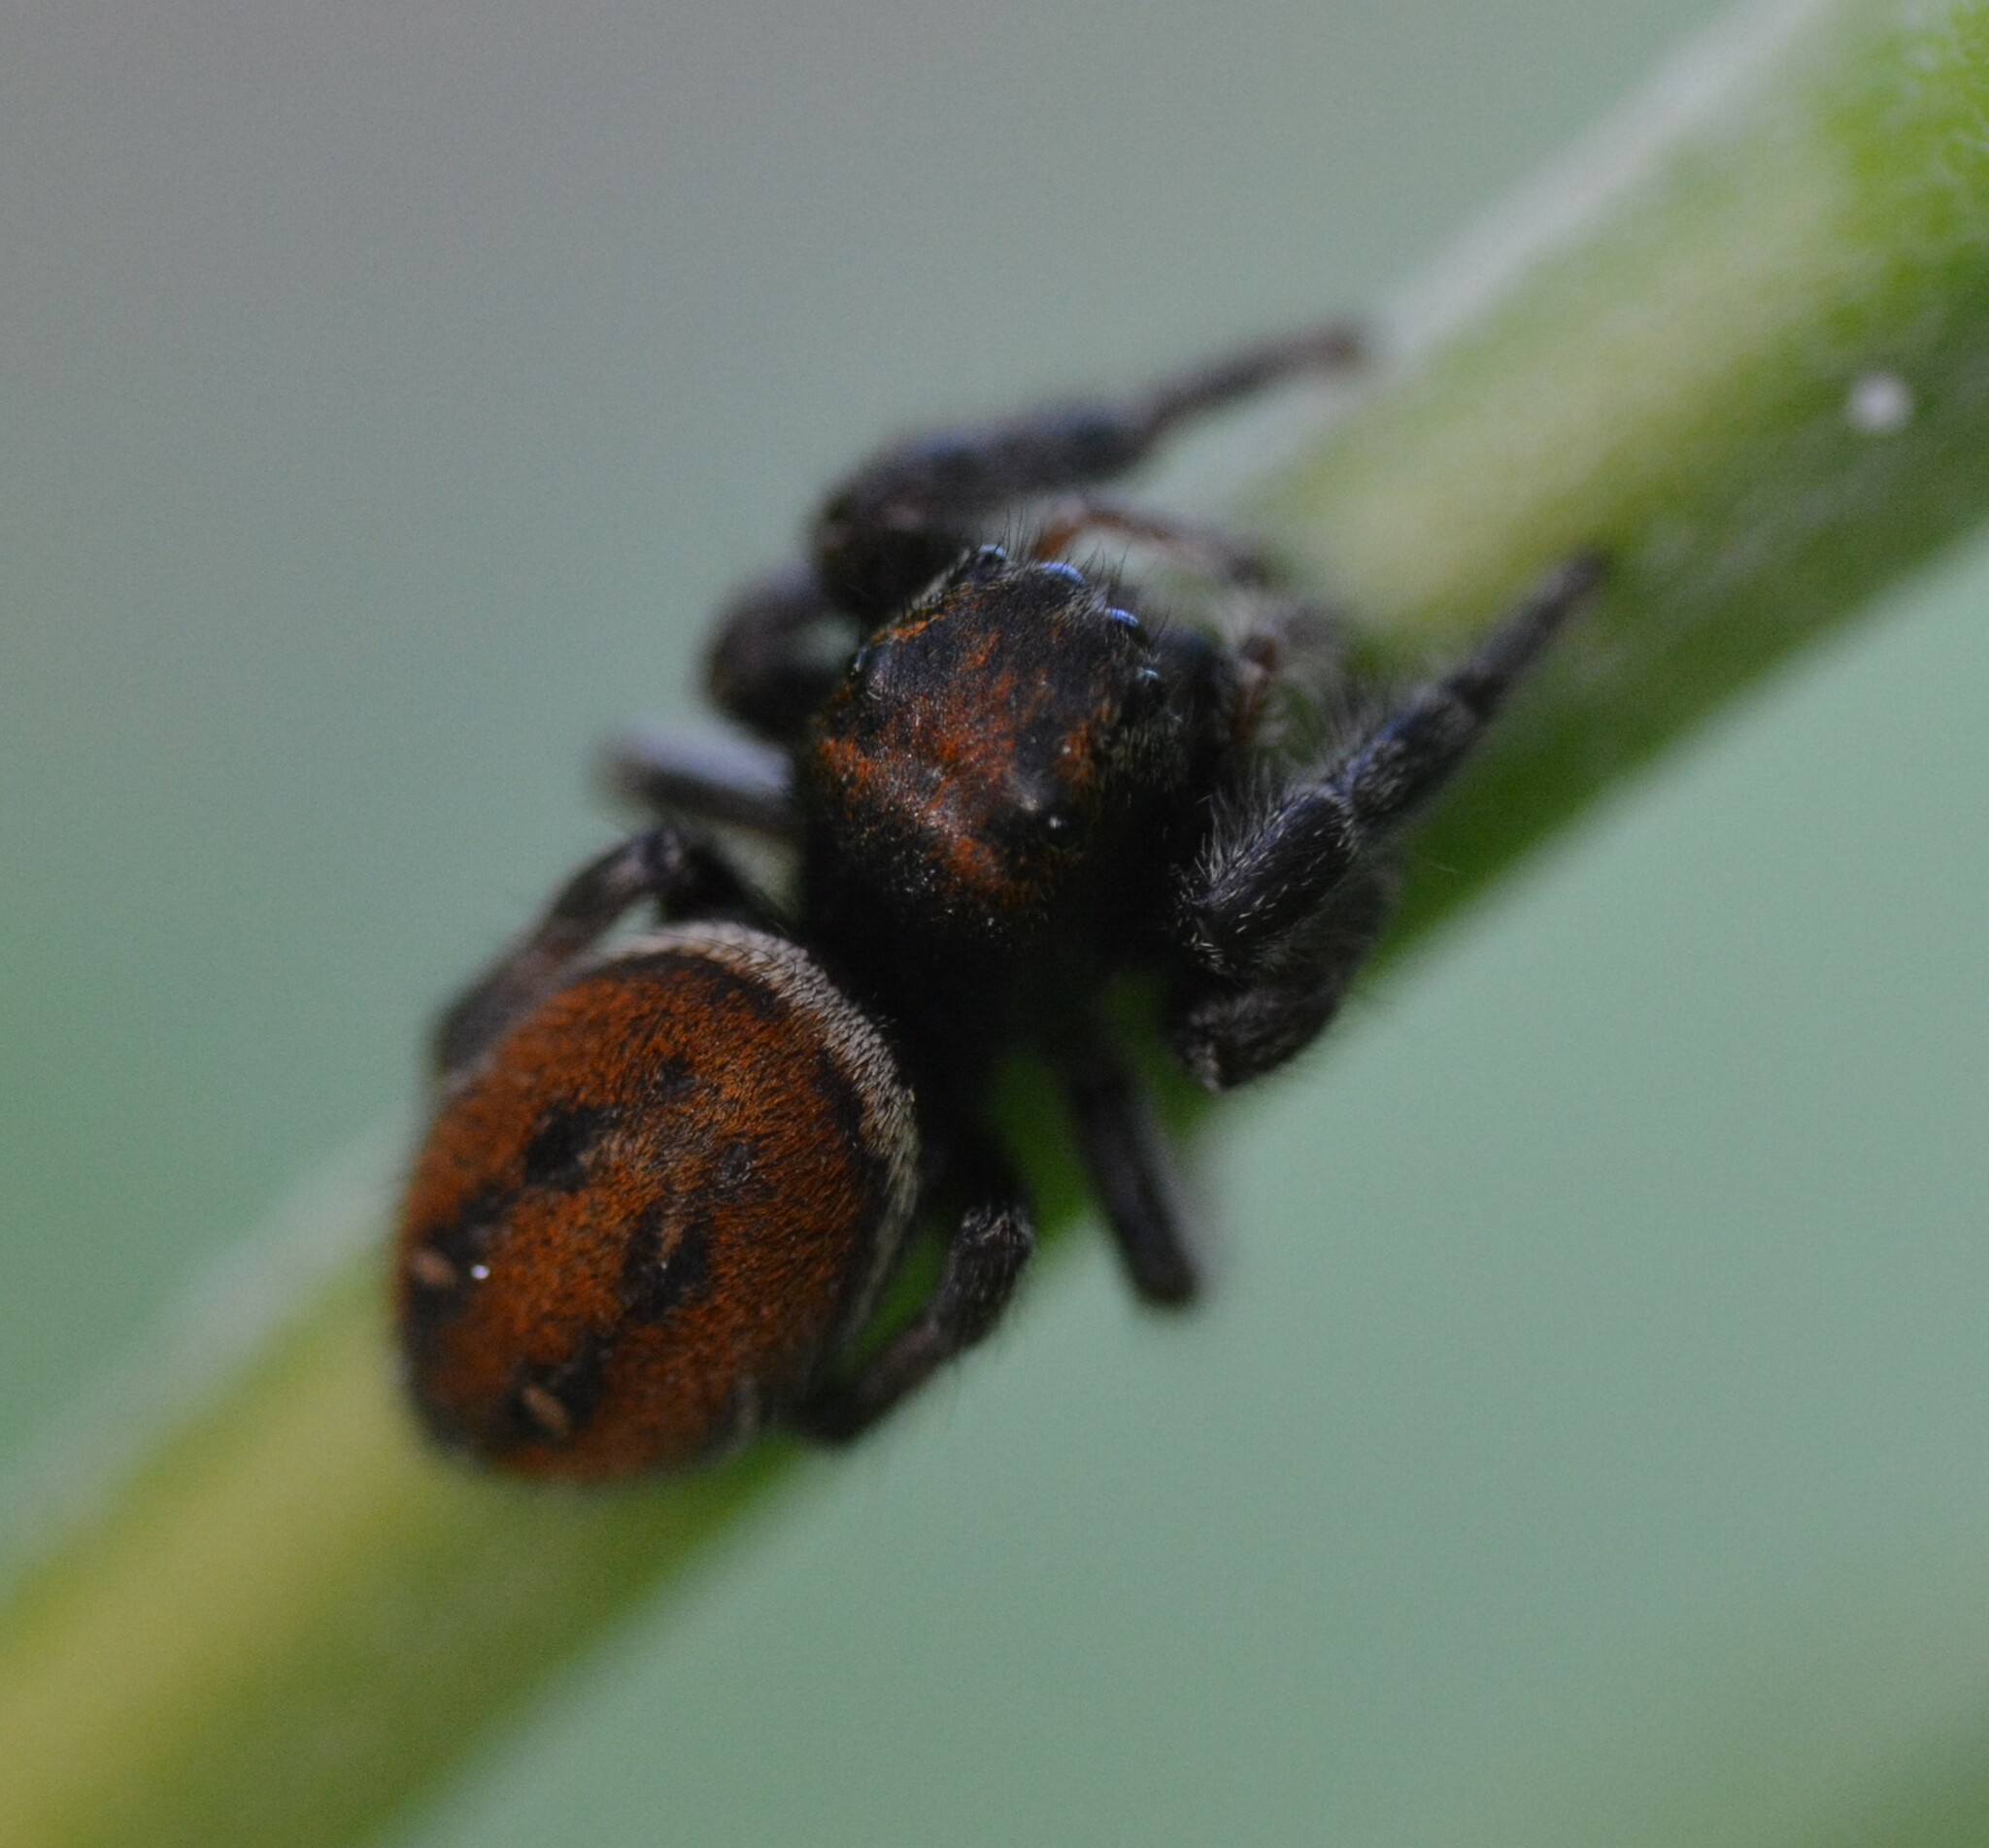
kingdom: Animalia
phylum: Arthropoda
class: Arachnida
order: Araneae
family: Salticidae
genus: Phidippus
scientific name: Phidippus whitmani
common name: Whitman's jumping spider
